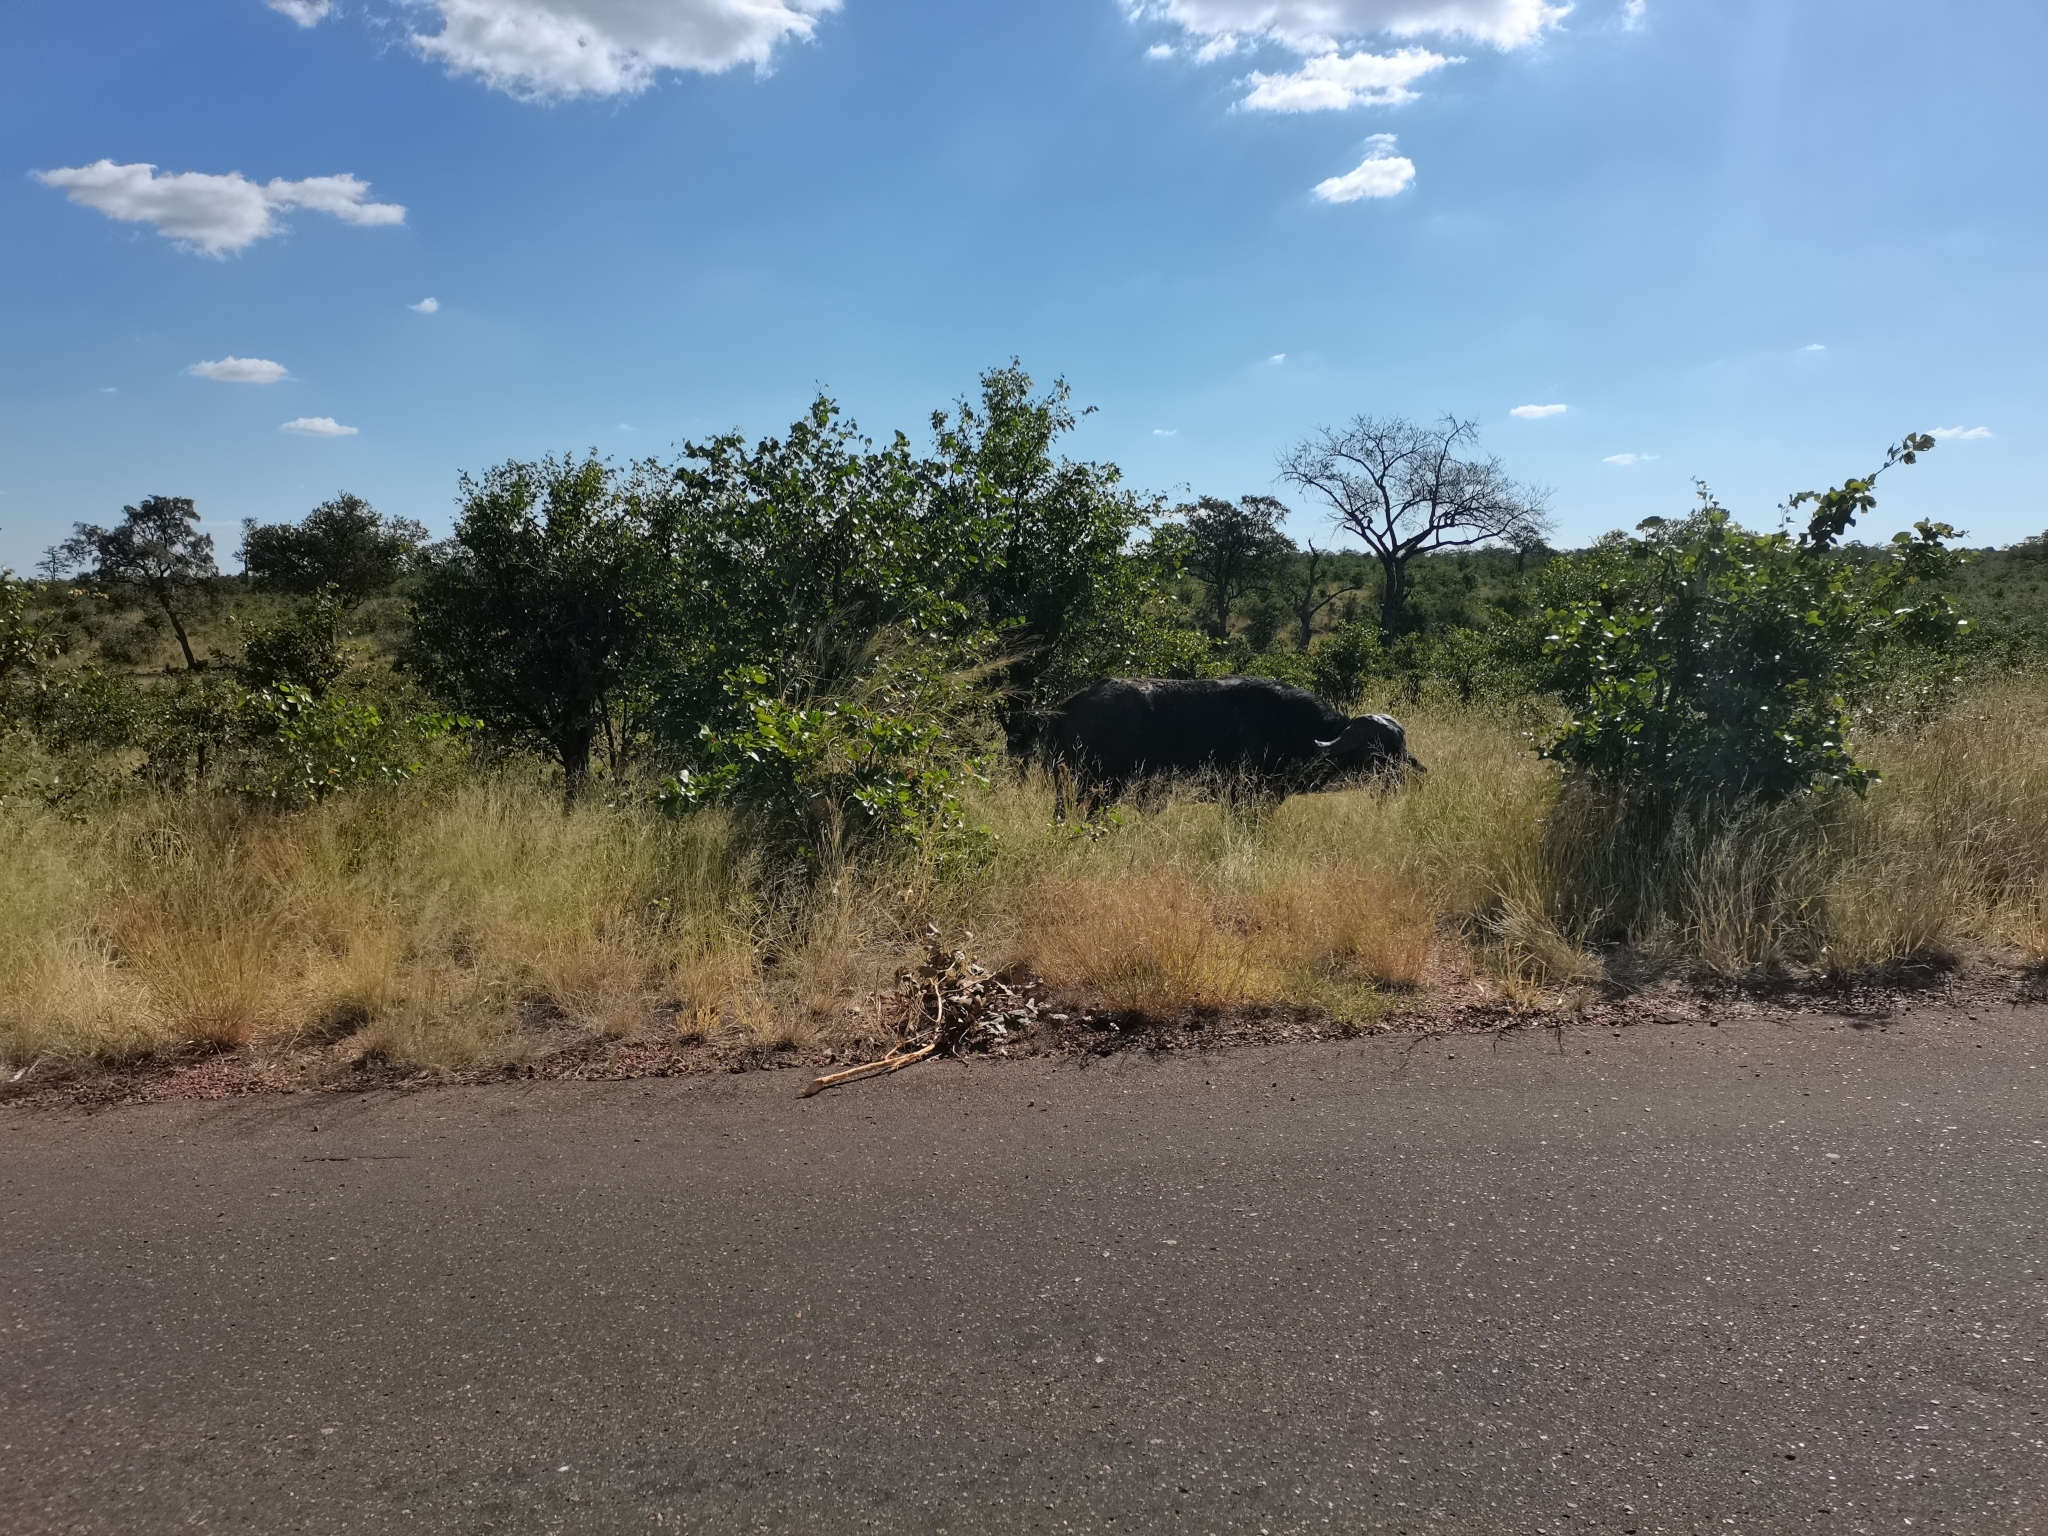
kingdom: Animalia
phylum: Chordata
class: Mammalia
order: Artiodactyla
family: Bovidae
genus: Syncerus
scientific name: Syncerus caffer
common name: African buffalo
